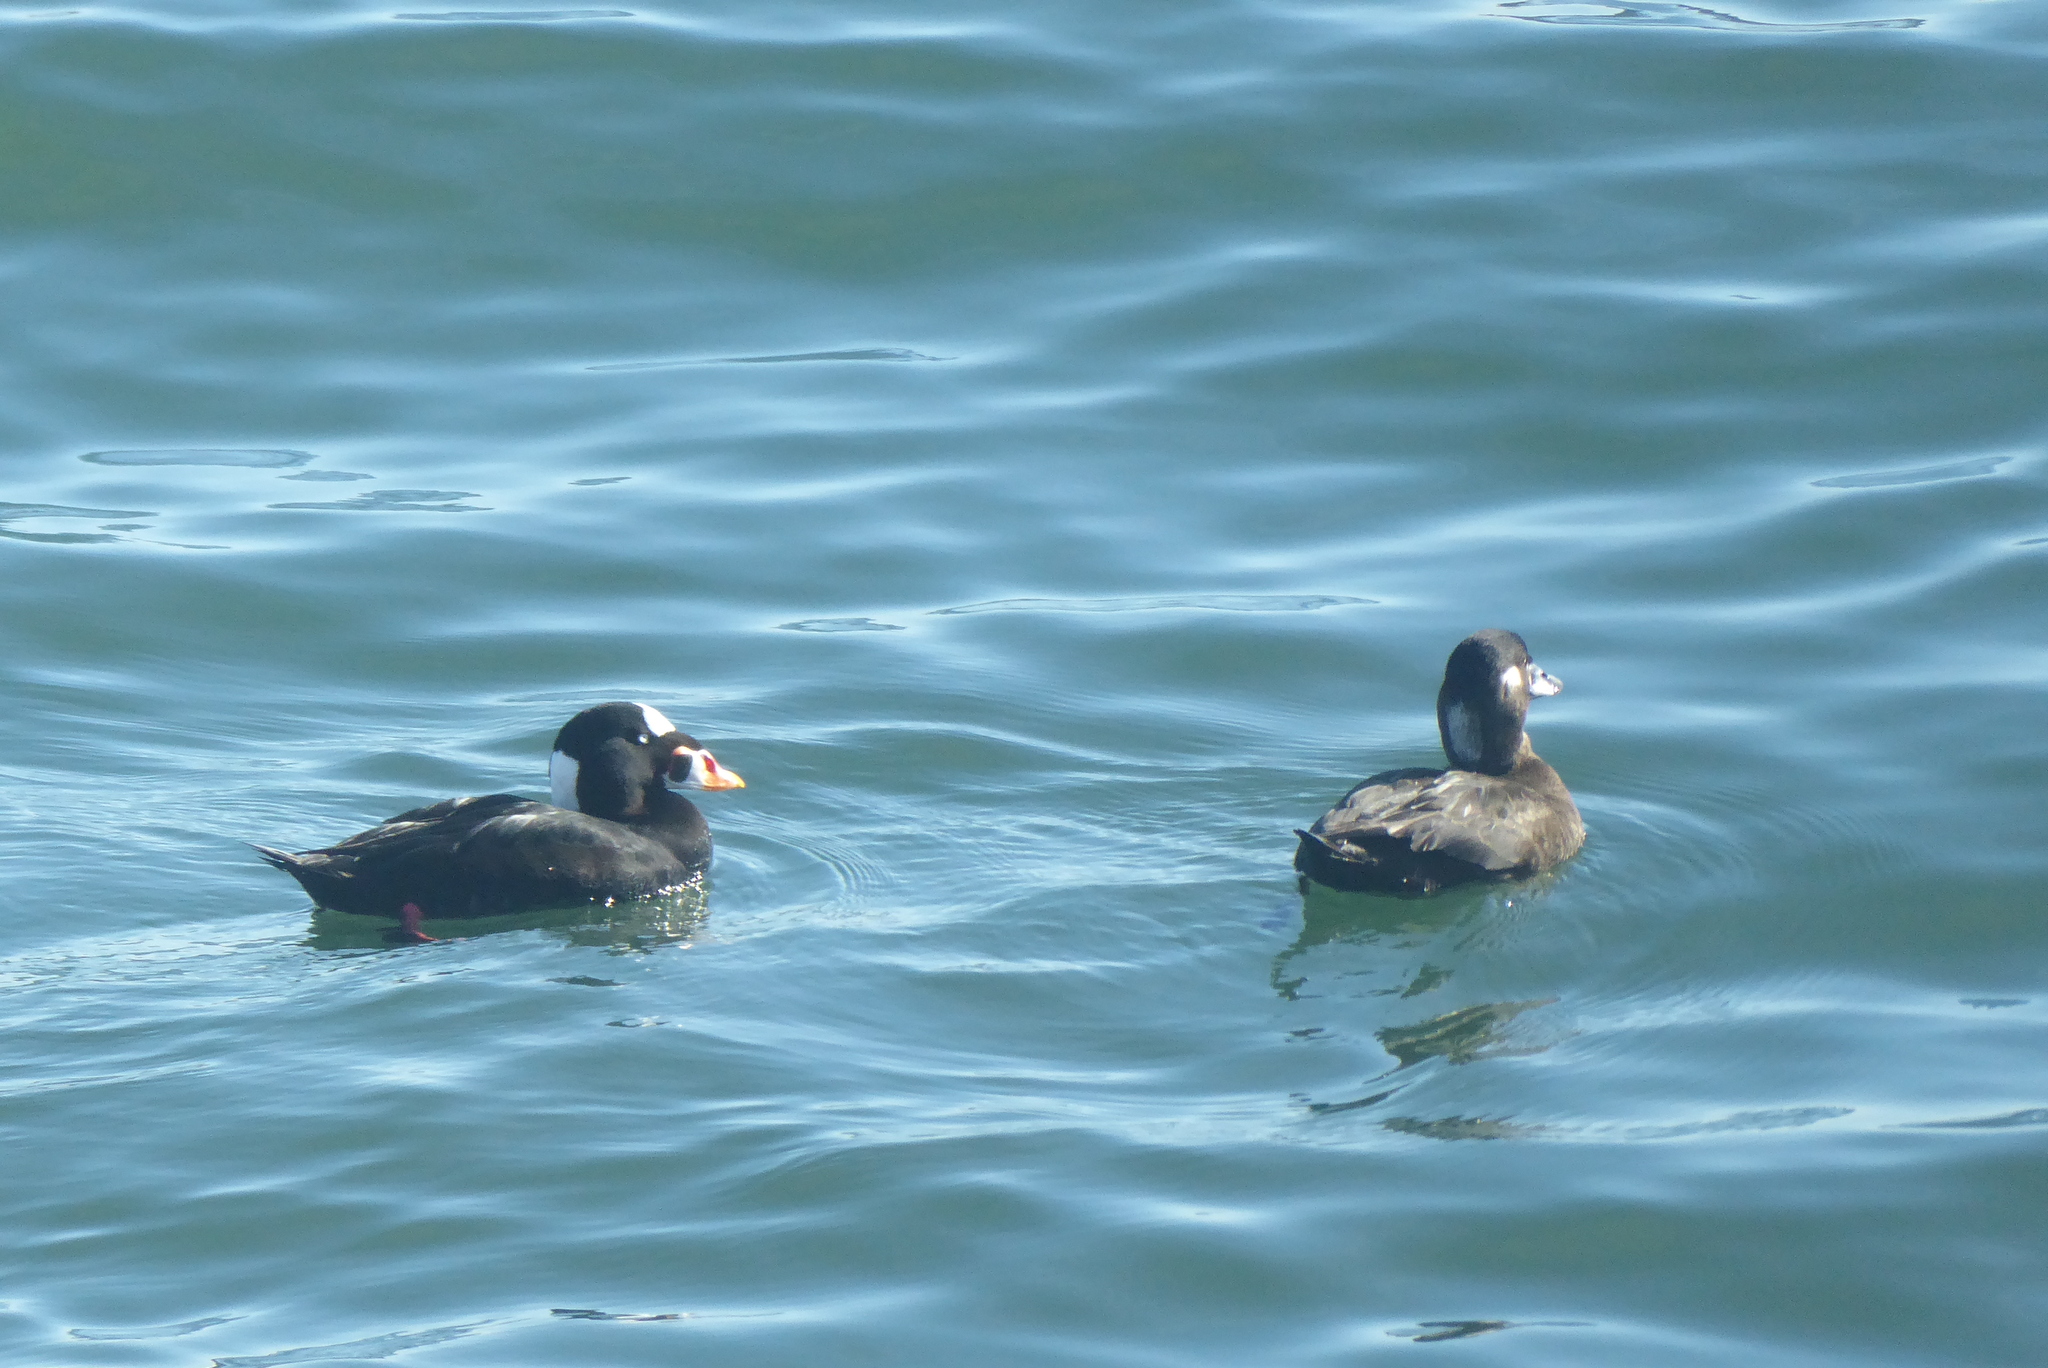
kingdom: Animalia
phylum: Chordata
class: Aves
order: Anseriformes
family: Anatidae
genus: Melanitta
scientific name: Melanitta perspicillata
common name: Surf scoter
